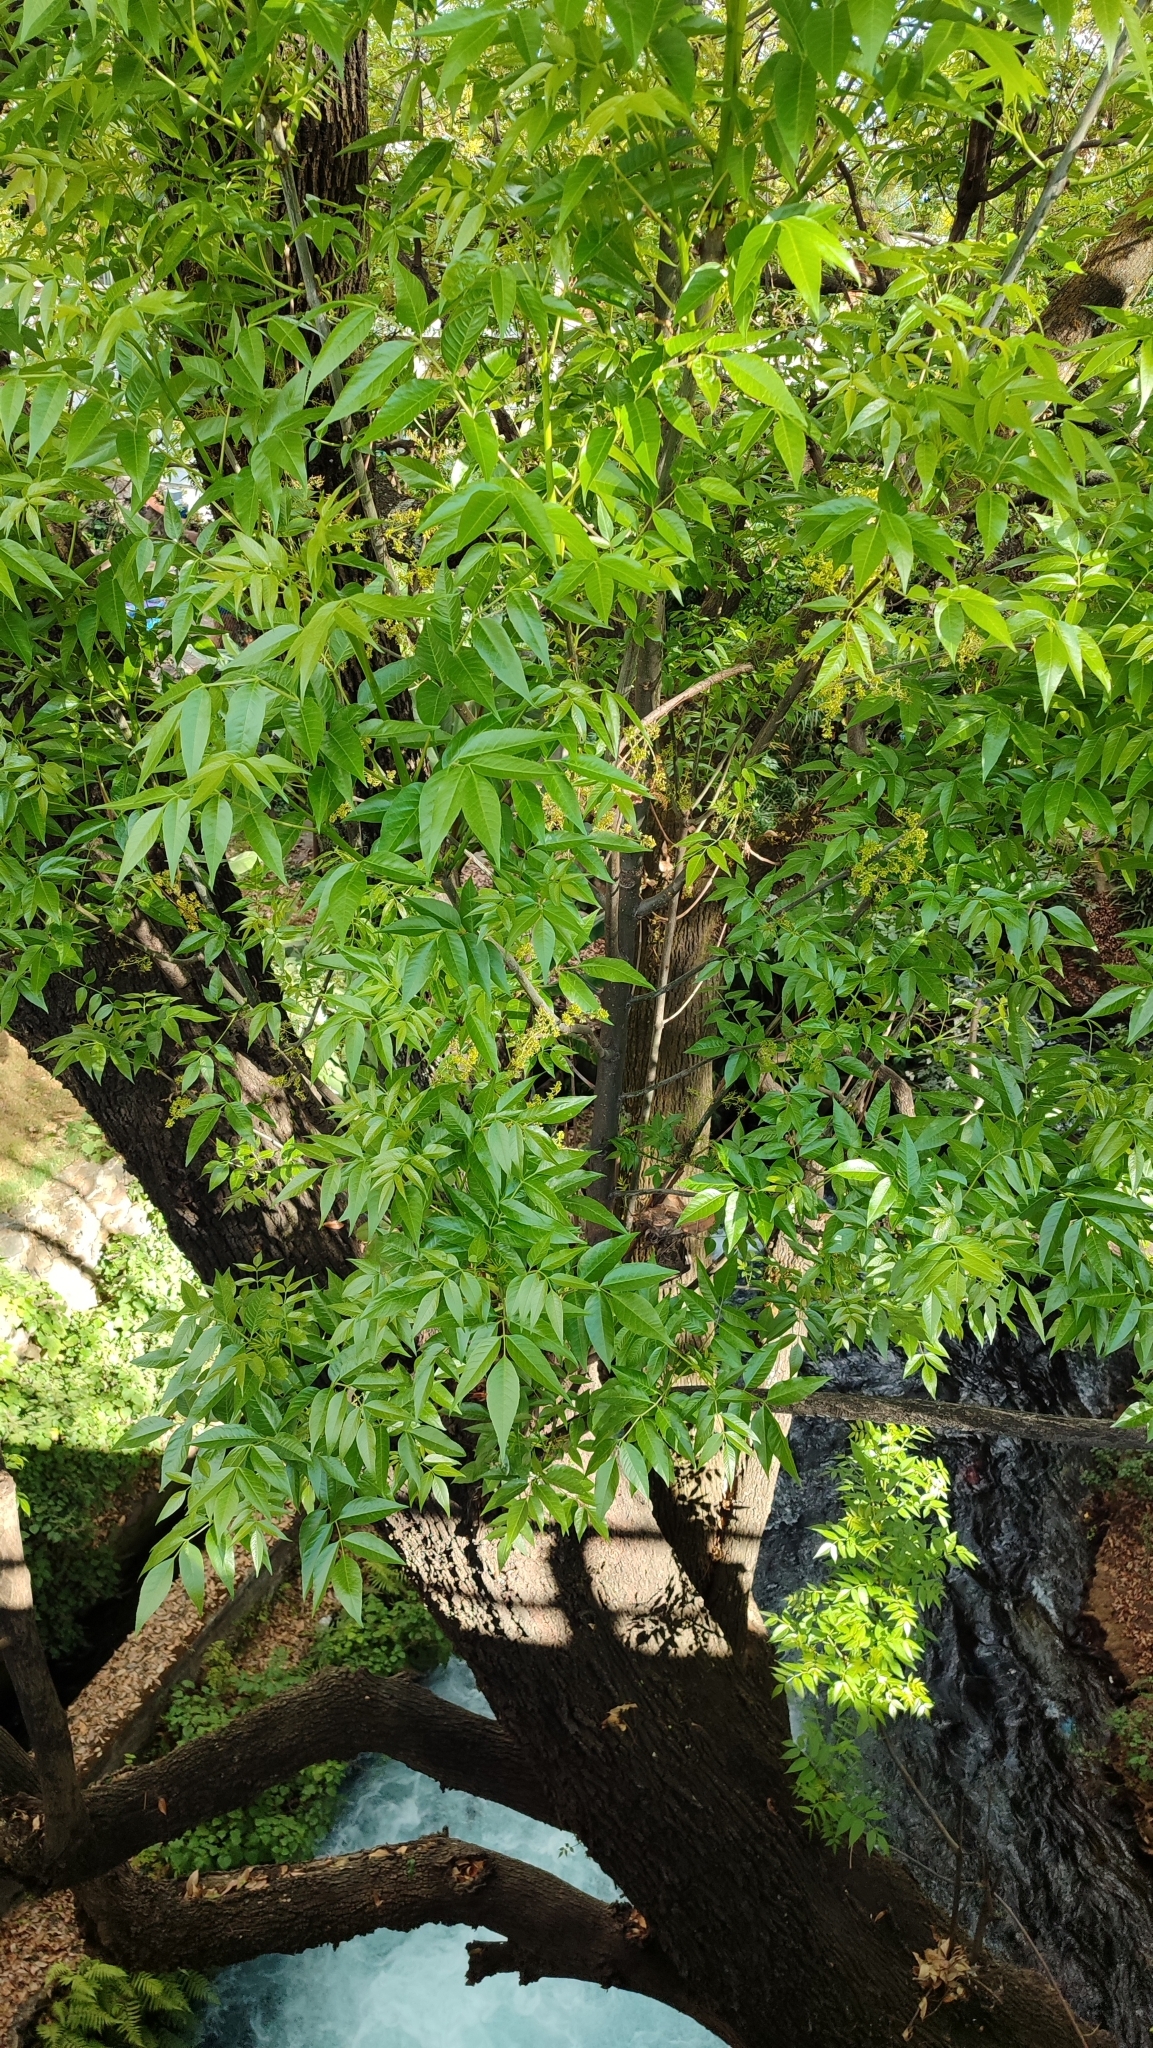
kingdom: Plantae
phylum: Tracheophyta
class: Magnoliopsida
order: Lamiales
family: Oleaceae
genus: Fraxinus
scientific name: Fraxinus uhdei
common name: Shamel ash
